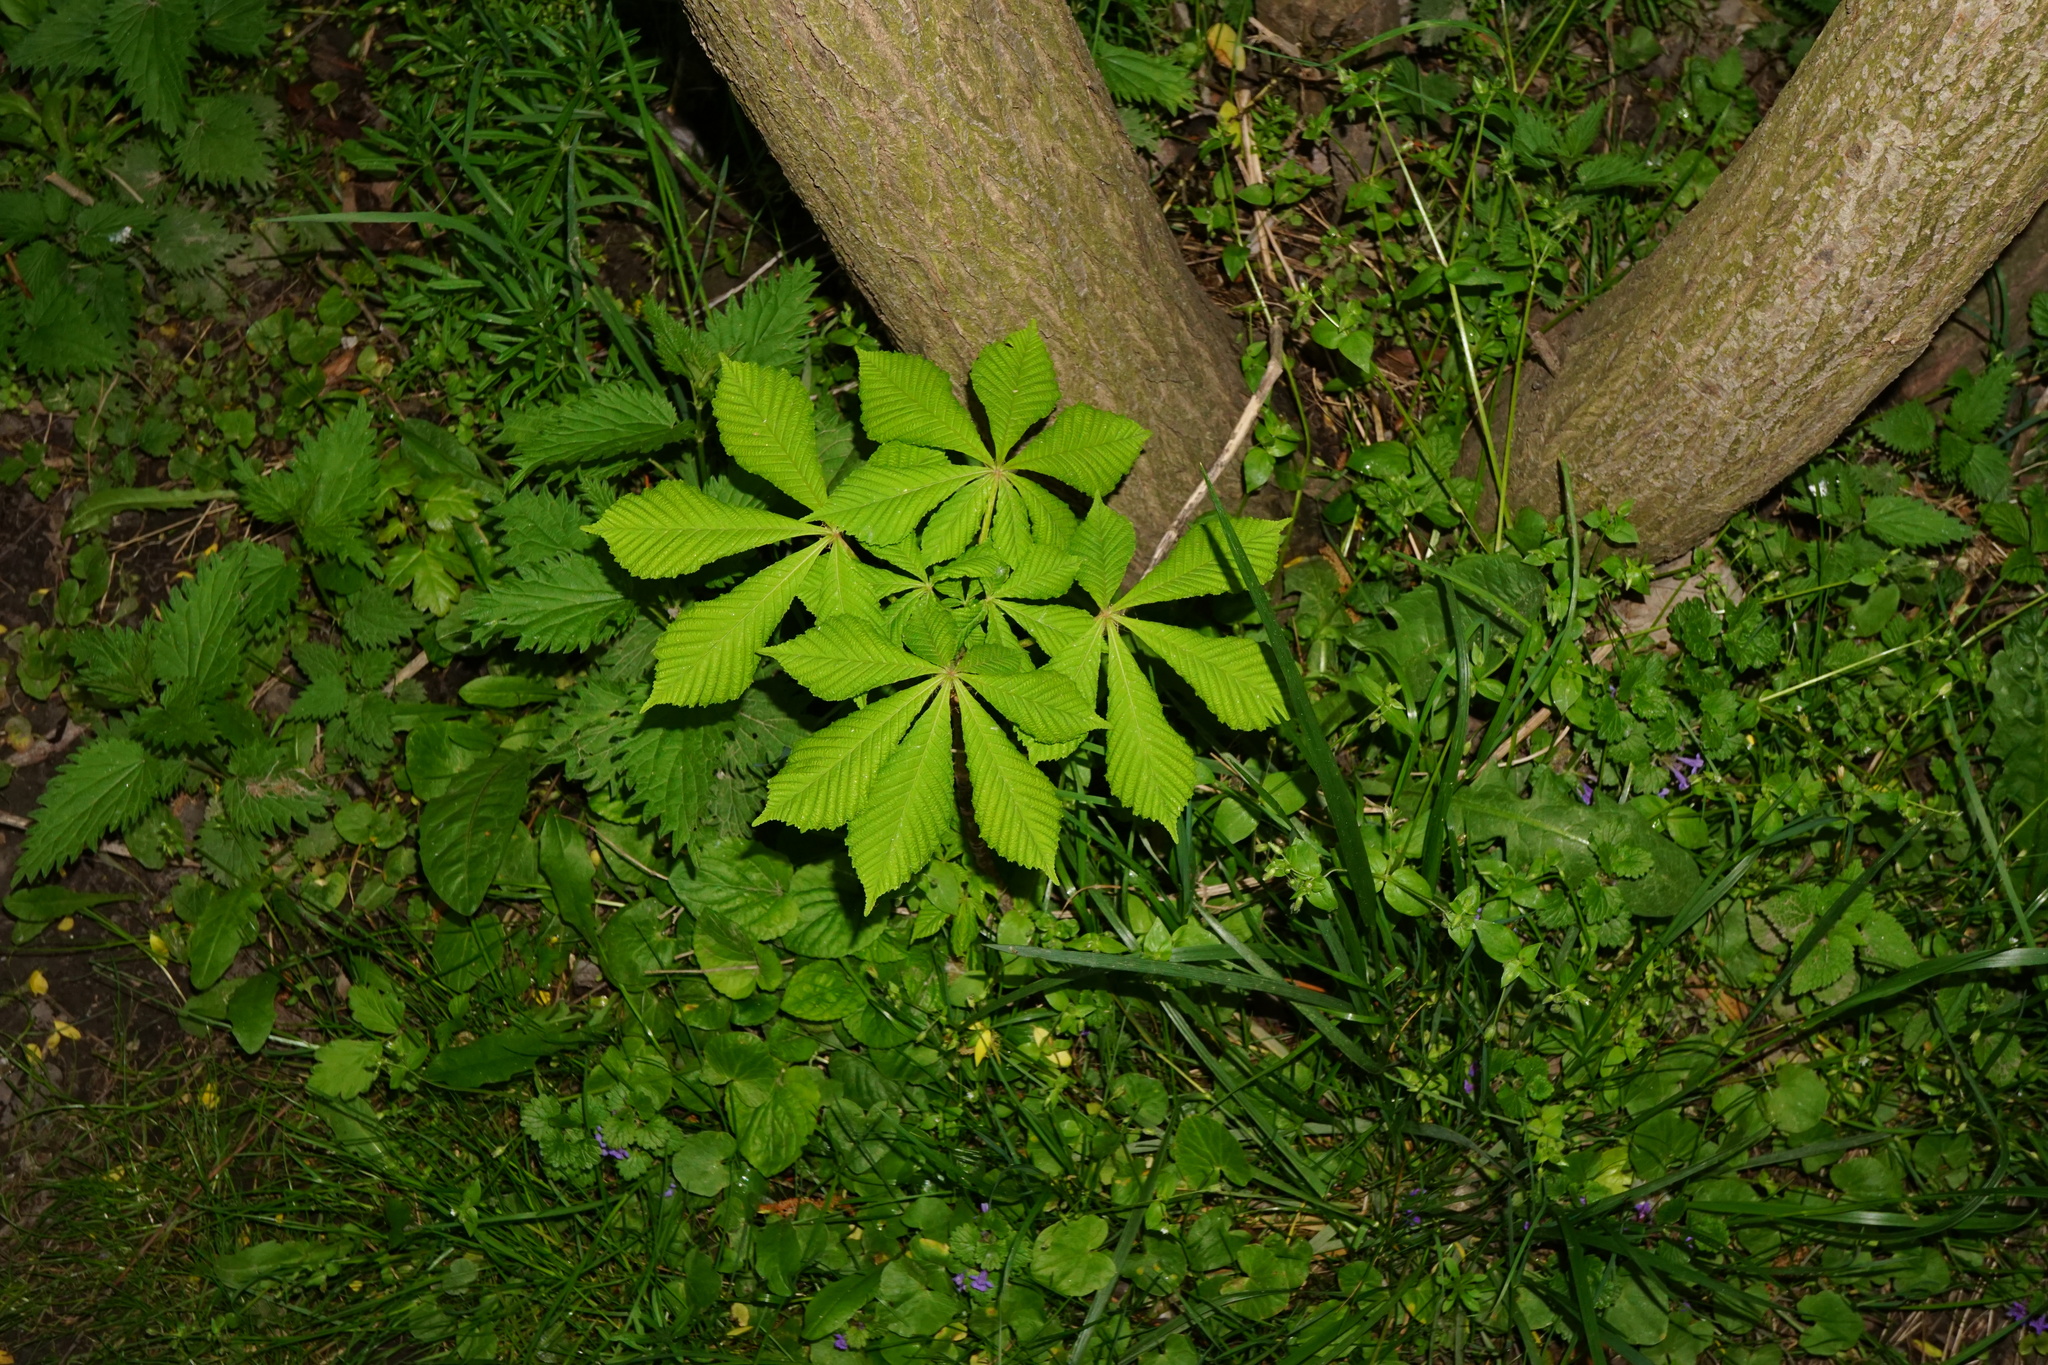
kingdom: Plantae
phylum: Tracheophyta
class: Magnoliopsida
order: Sapindales
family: Sapindaceae
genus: Aesculus
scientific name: Aesculus hippocastanum
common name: Horse-chestnut
